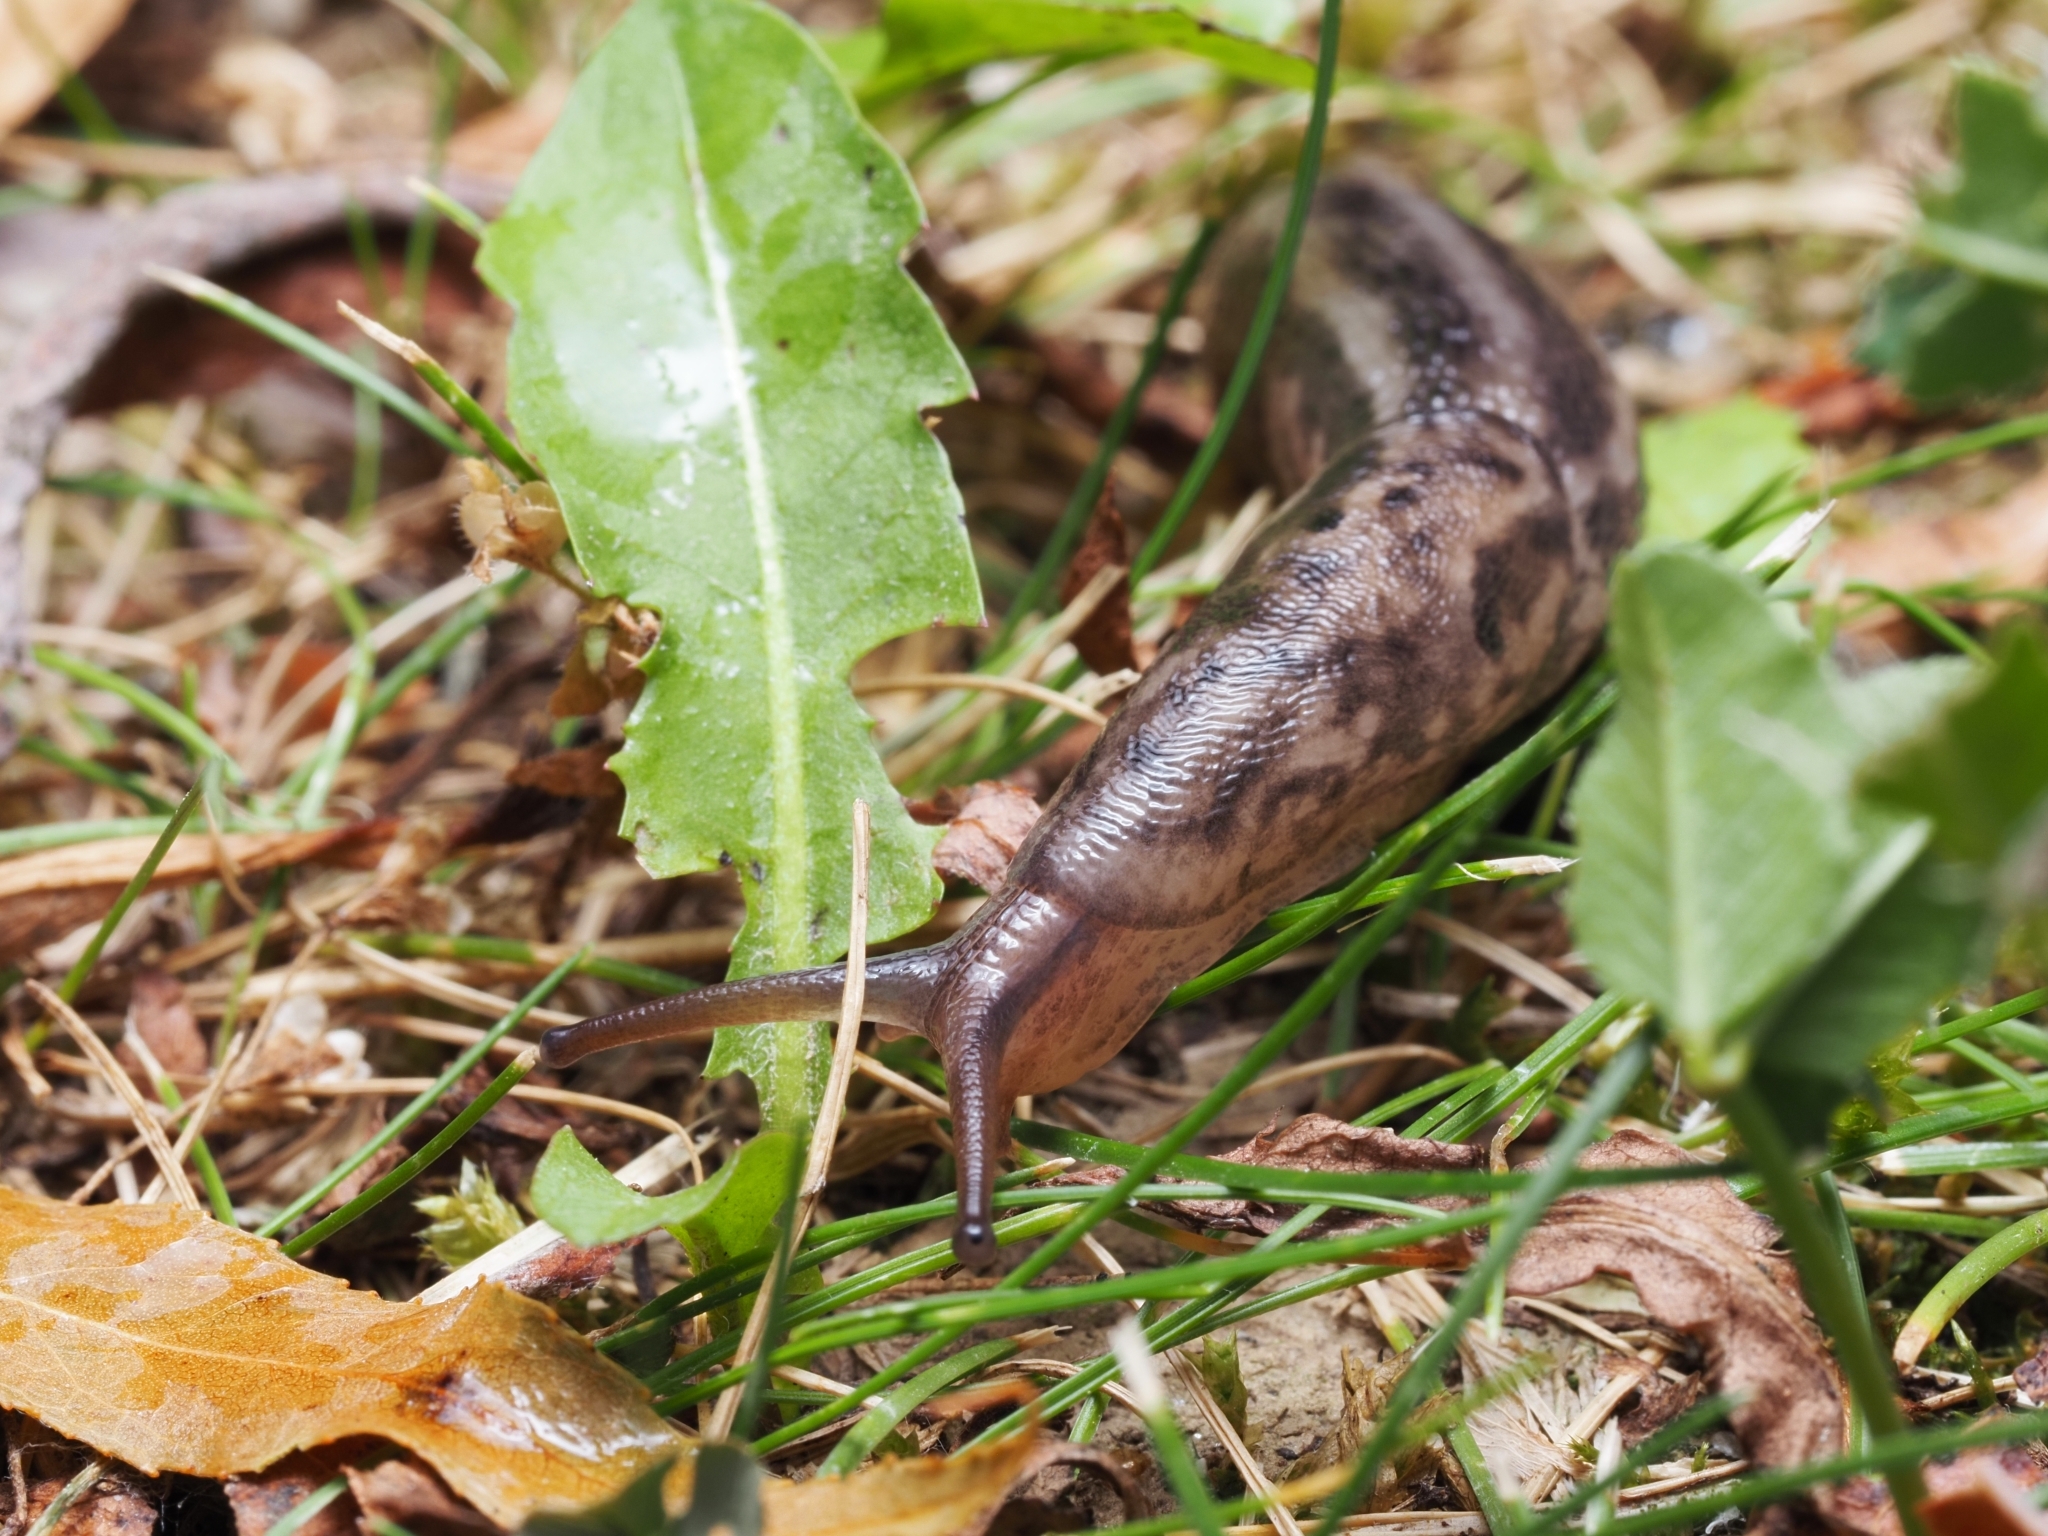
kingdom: Animalia
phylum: Mollusca
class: Gastropoda
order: Stylommatophora
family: Limacidae
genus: Limax
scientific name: Limax maximus
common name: Great grey slug
